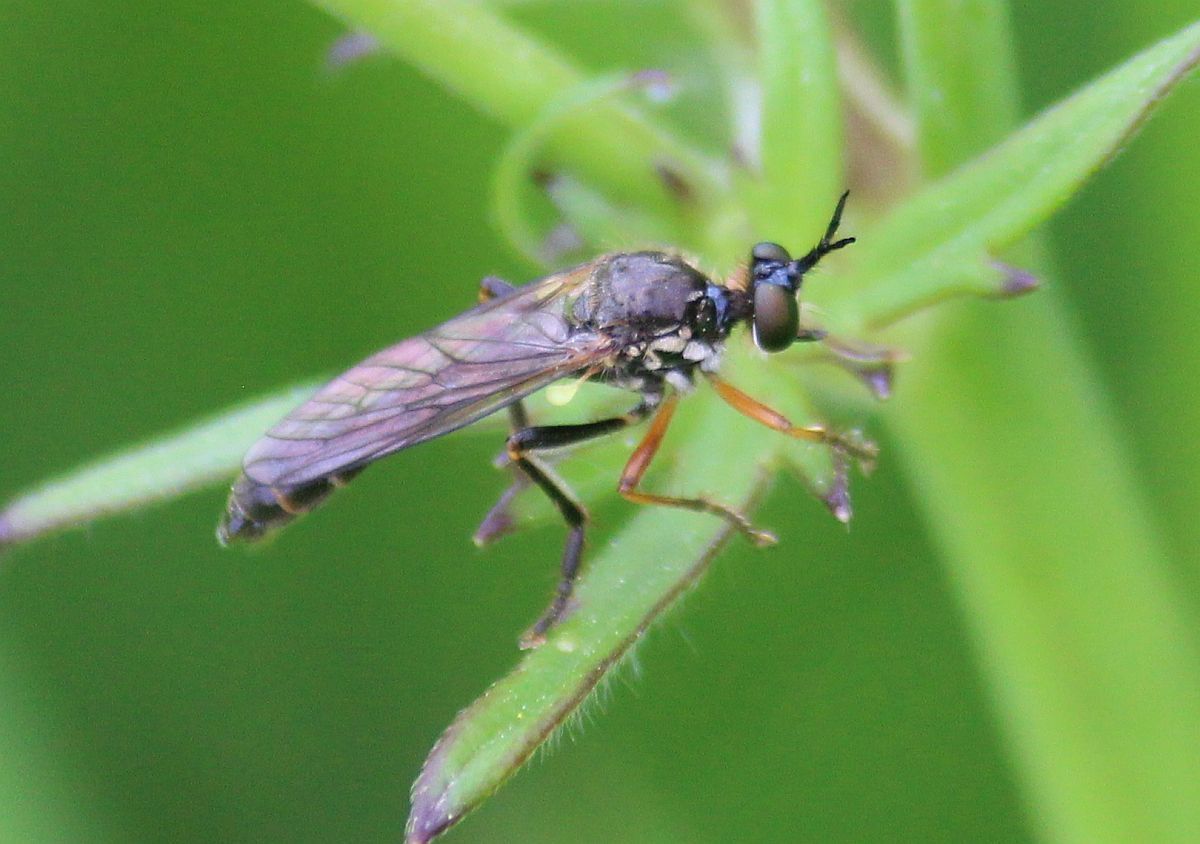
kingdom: Animalia
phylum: Arthropoda
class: Insecta
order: Diptera
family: Asilidae
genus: Dioctria
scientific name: Dioctria rufipes
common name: Common red-legged robberfly
